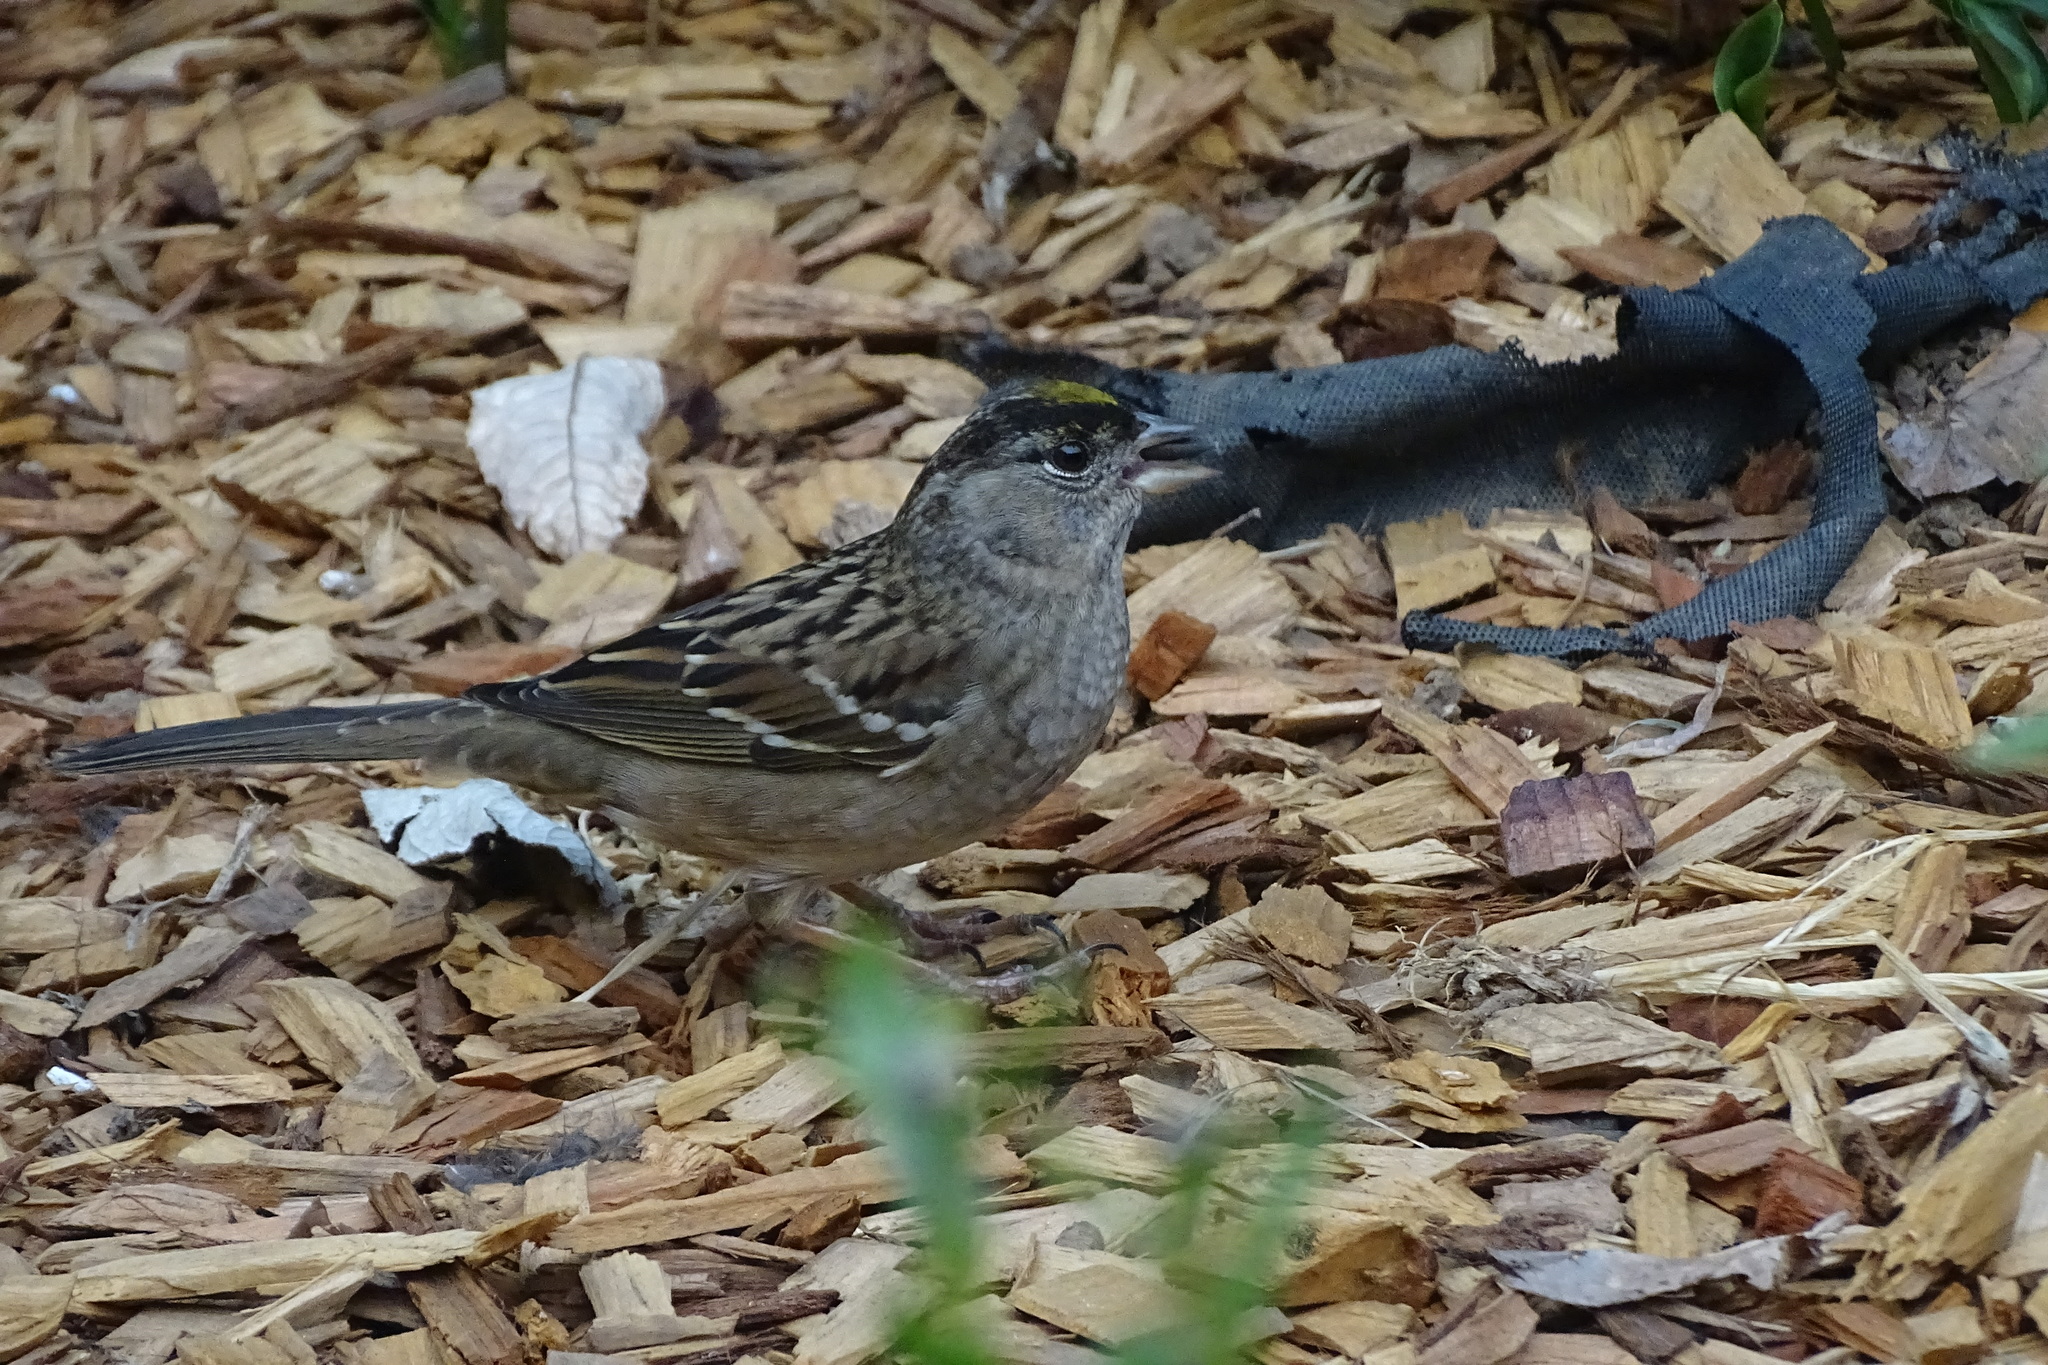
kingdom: Animalia
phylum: Chordata
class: Aves
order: Passeriformes
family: Passerellidae
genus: Zonotrichia
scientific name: Zonotrichia atricapilla
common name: Golden-crowned sparrow
